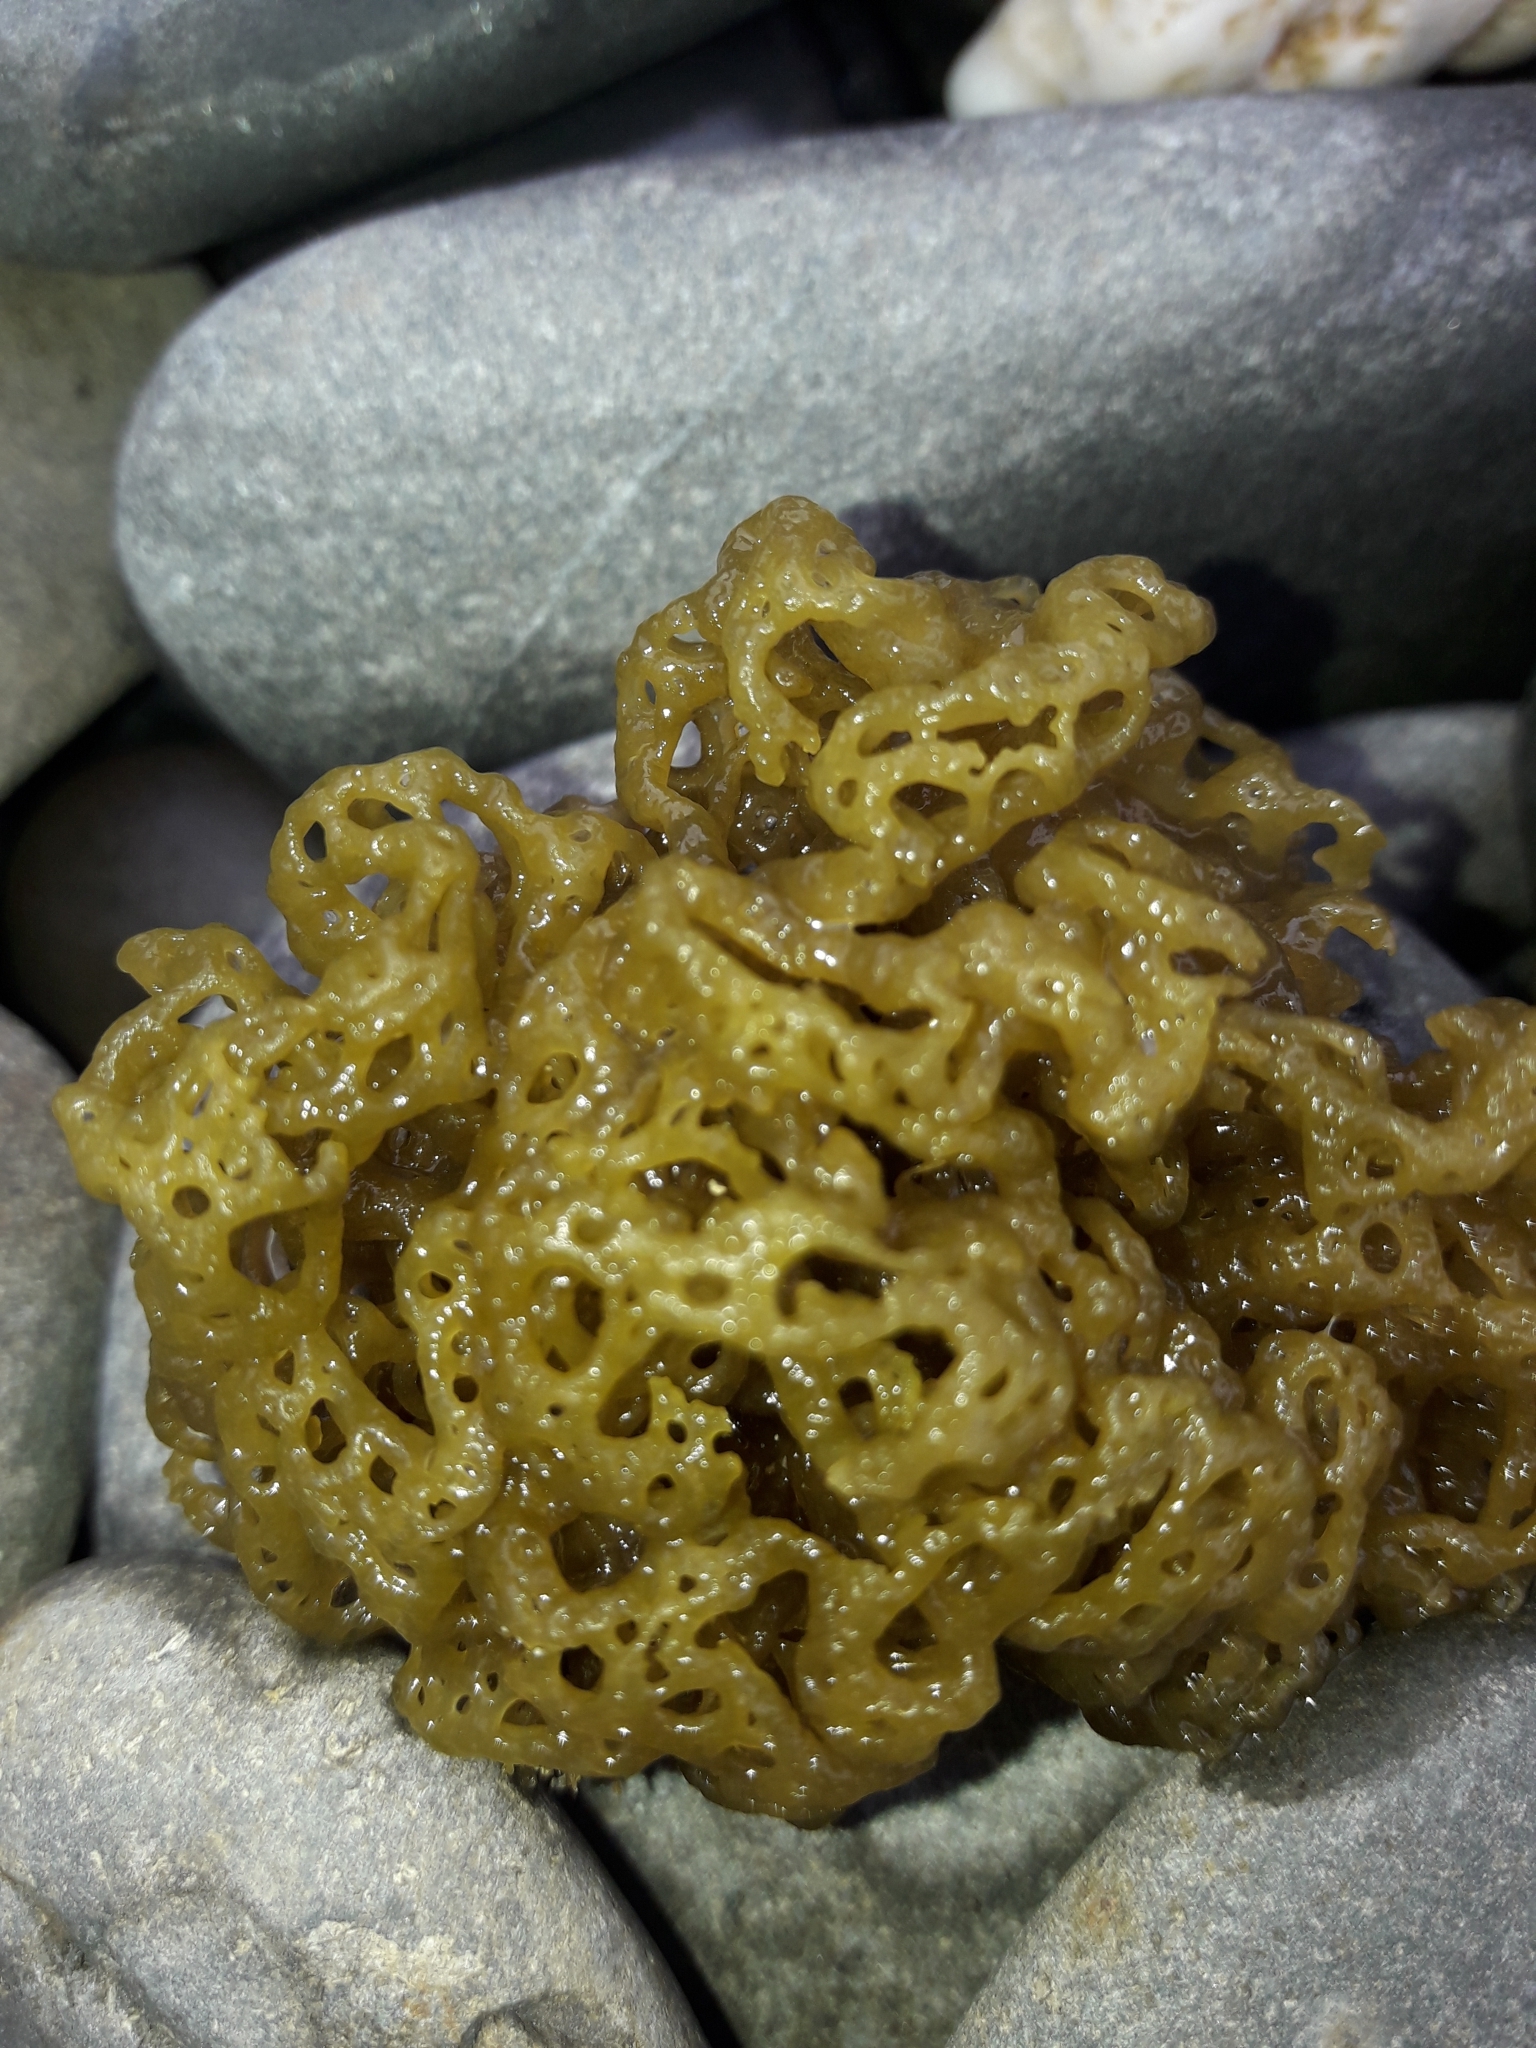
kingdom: Chromista
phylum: Ochrophyta
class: Phaeophyceae
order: Scytosiphonales
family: Scytosiphonaceae
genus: Hydroclathrus
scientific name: Hydroclathrus clathratus
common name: Swiss cheese algae
